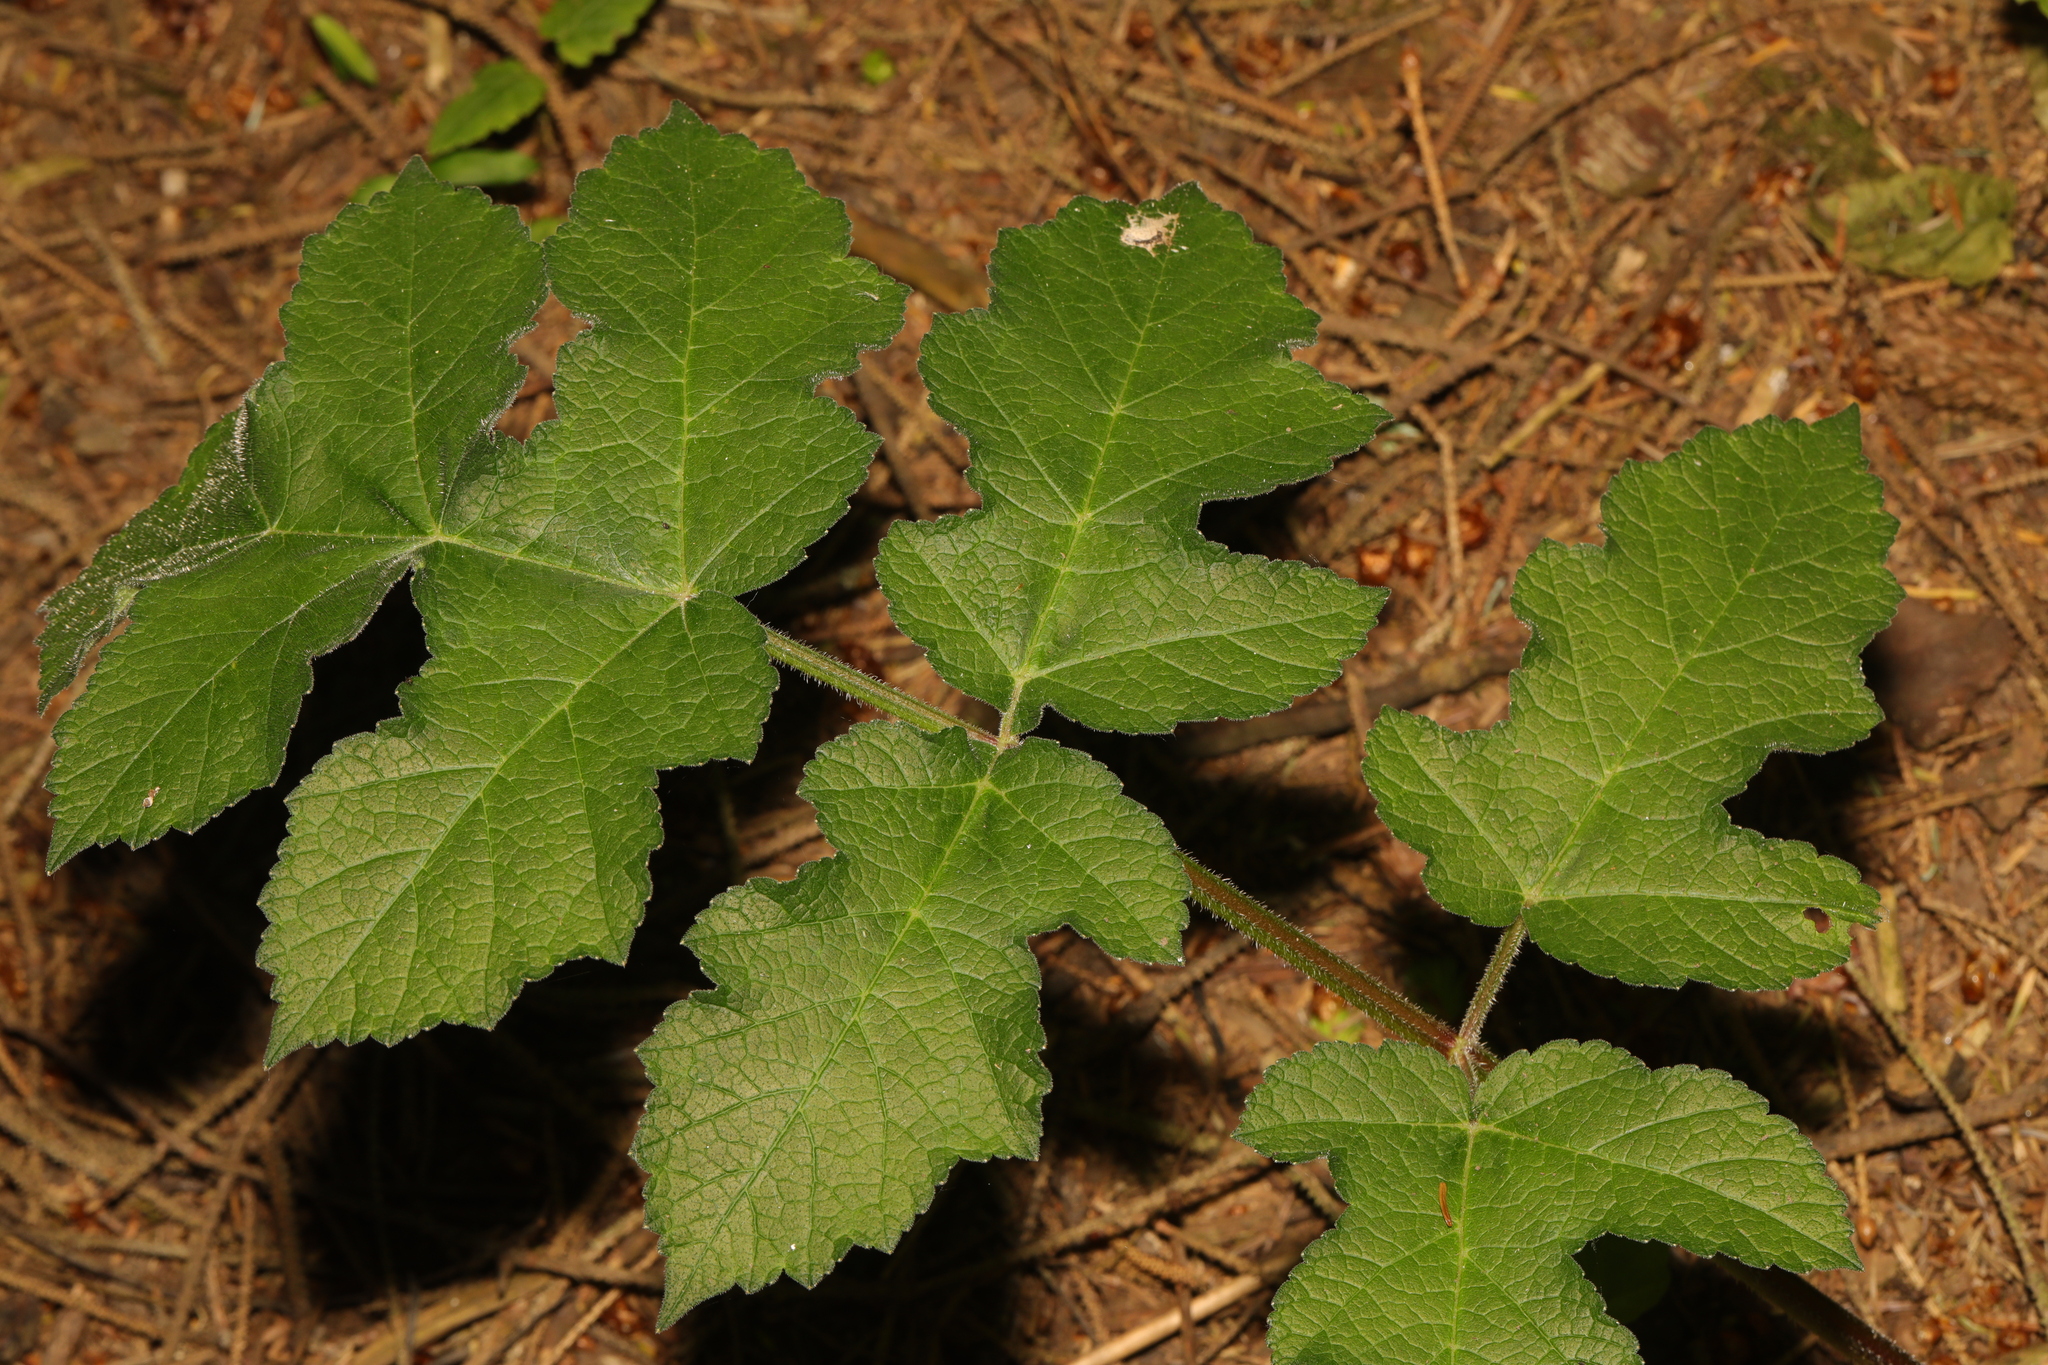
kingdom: Plantae
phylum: Tracheophyta
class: Magnoliopsida
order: Apiales
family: Apiaceae
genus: Heracleum
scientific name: Heracleum sphondylium
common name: Hogweed
